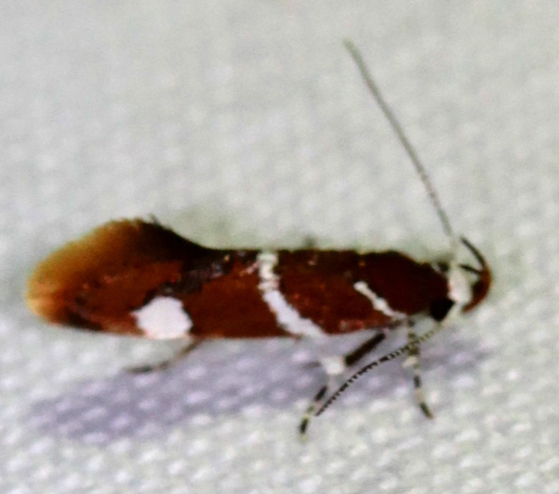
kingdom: Animalia
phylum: Arthropoda
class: Insecta
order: Lepidoptera
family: Oecophoridae
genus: Promalactis
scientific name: Promalactis suzukiella
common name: Moth
